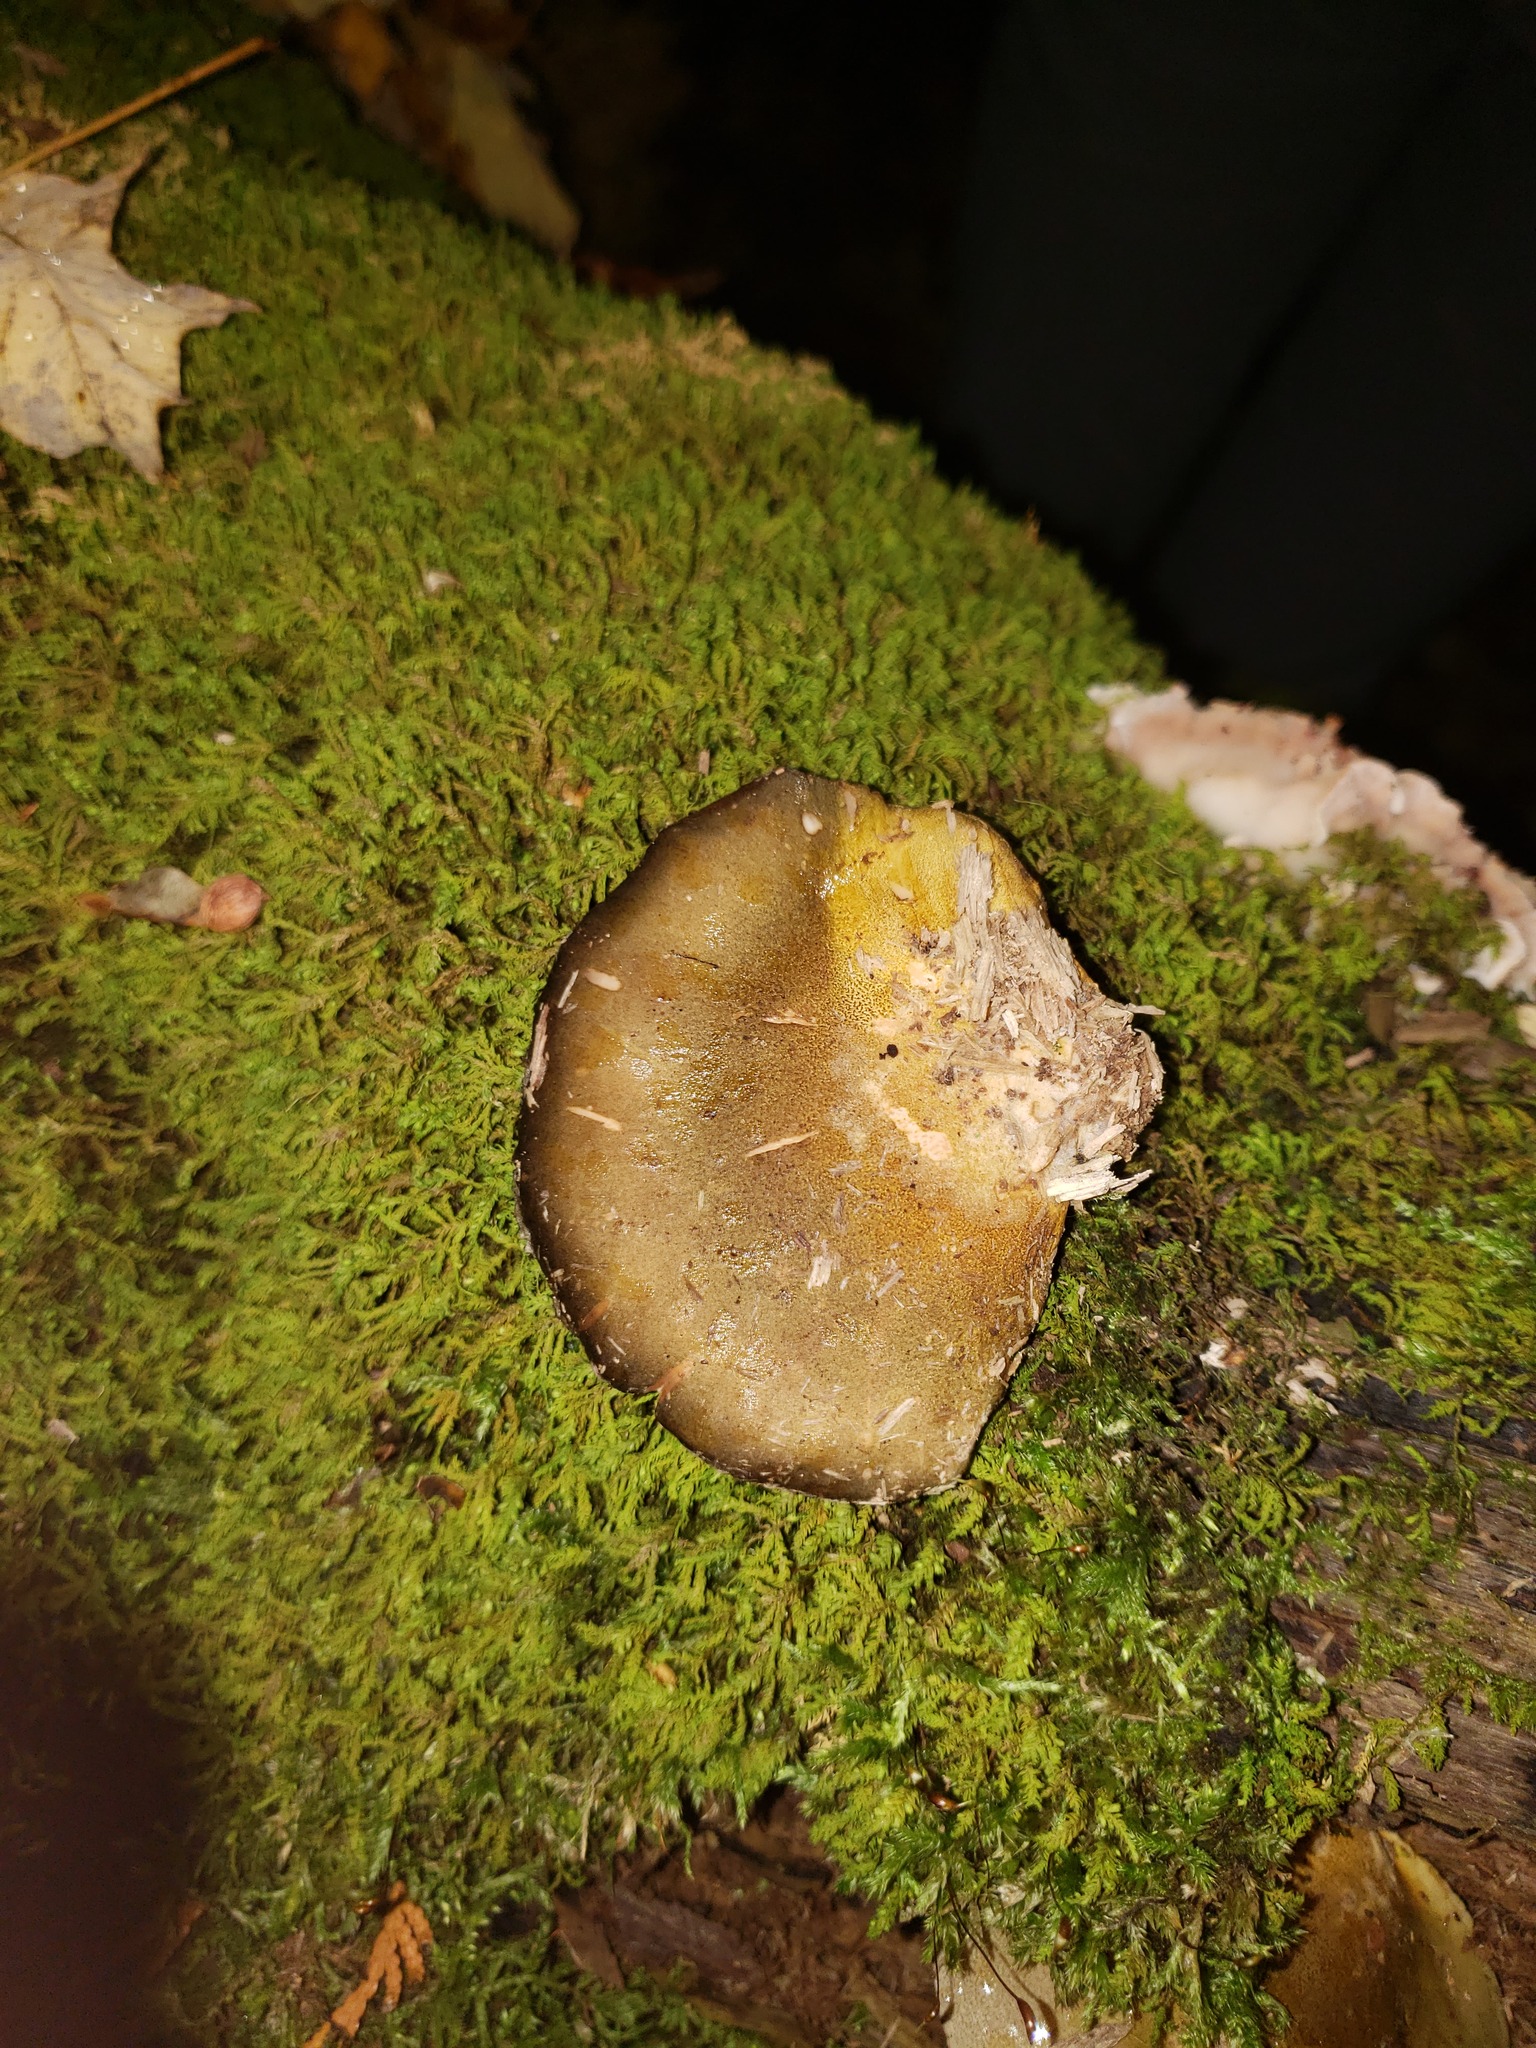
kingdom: Fungi
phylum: Basidiomycota
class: Agaricomycetes
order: Agaricales
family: Sarcomyxaceae
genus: Sarcomyxa
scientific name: Sarcomyxa serotina
